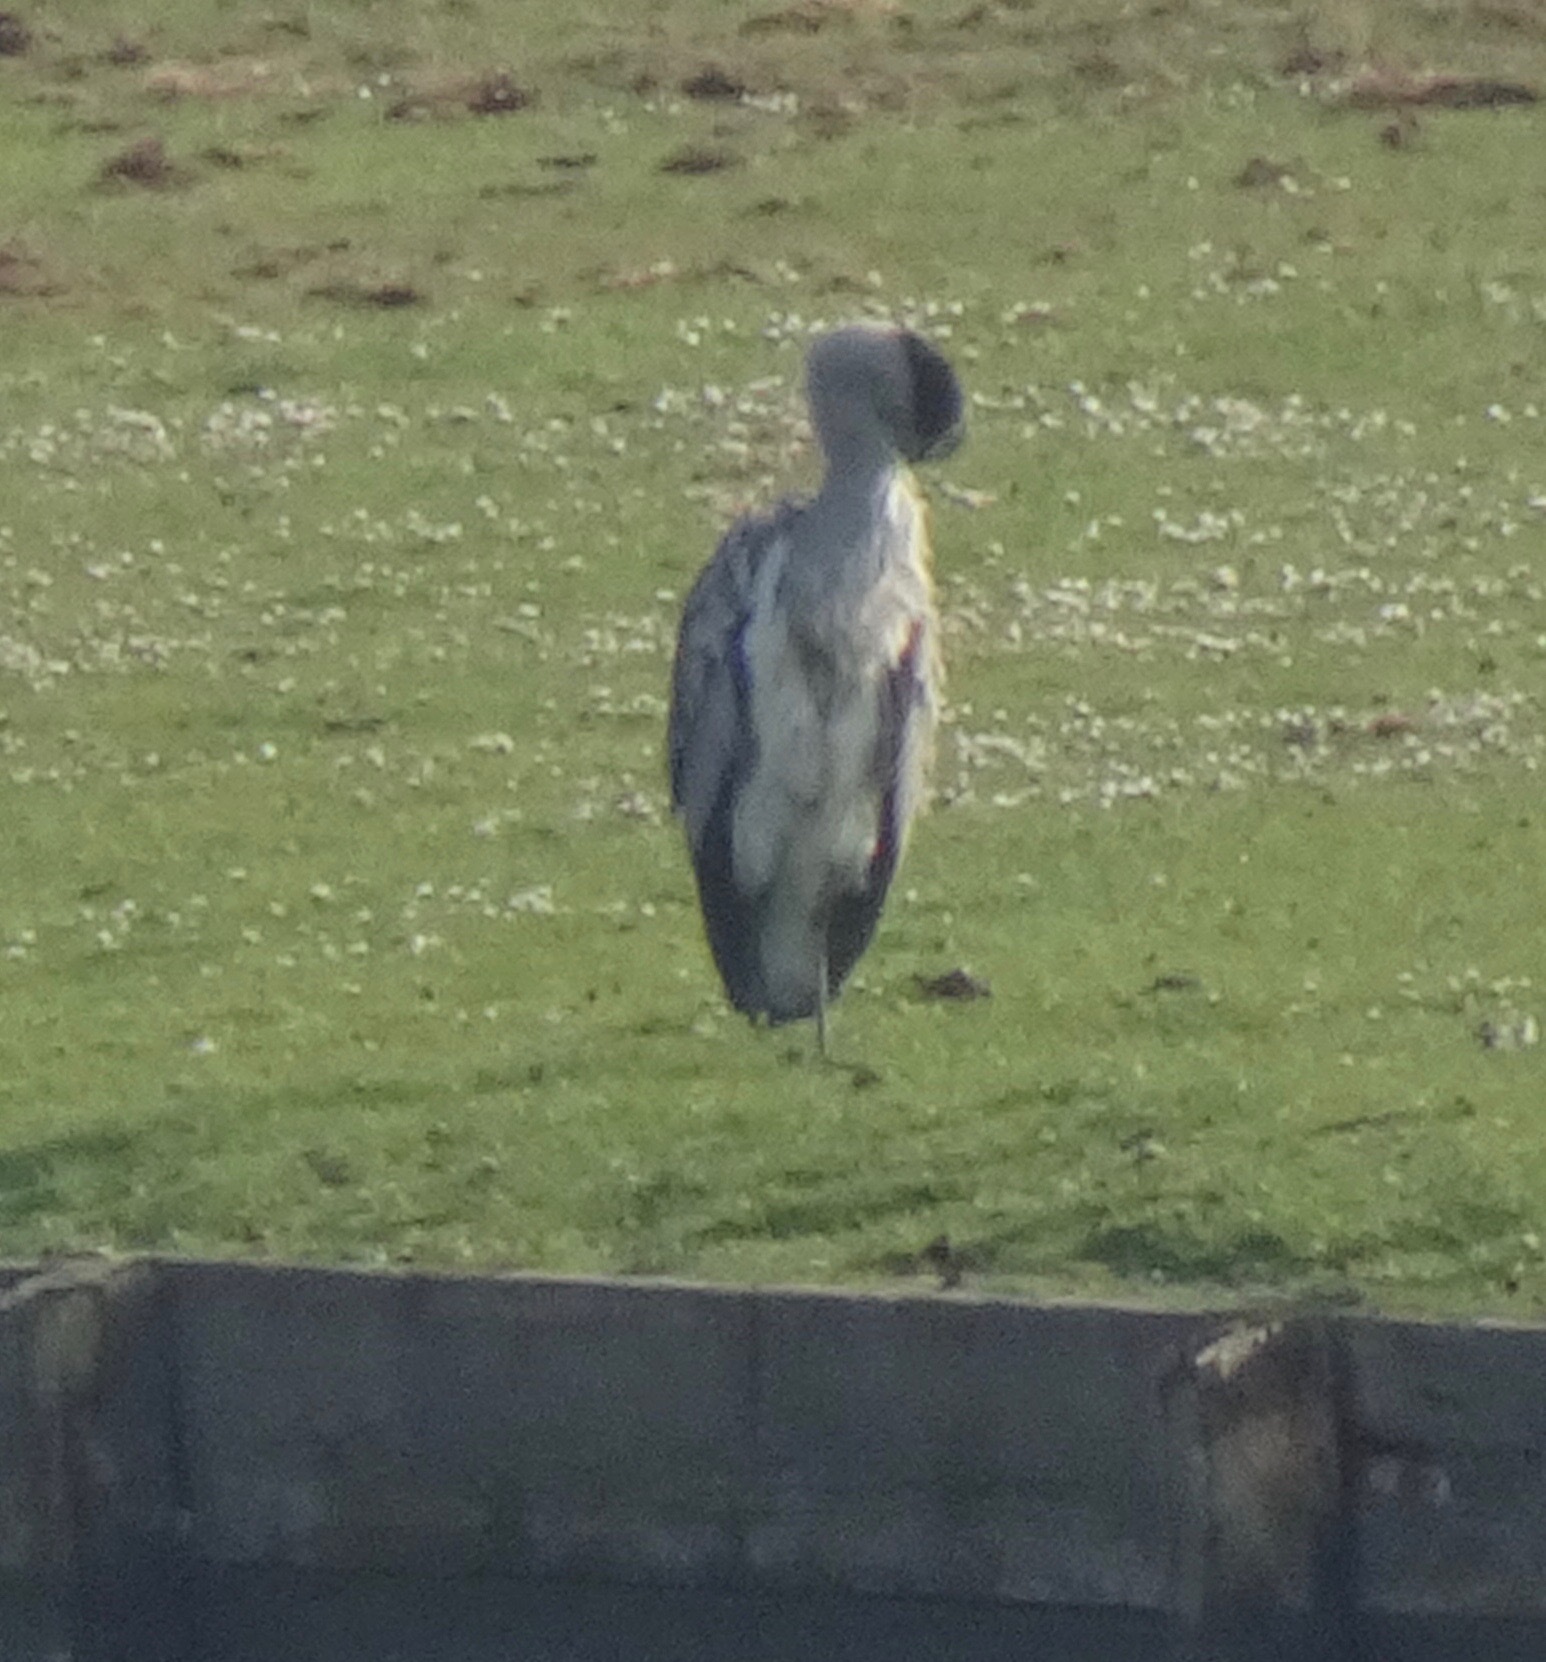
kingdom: Animalia
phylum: Chordata
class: Aves
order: Pelecaniformes
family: Ardeidae
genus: Ardea
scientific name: Ardea cinerea
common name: Grey heron
